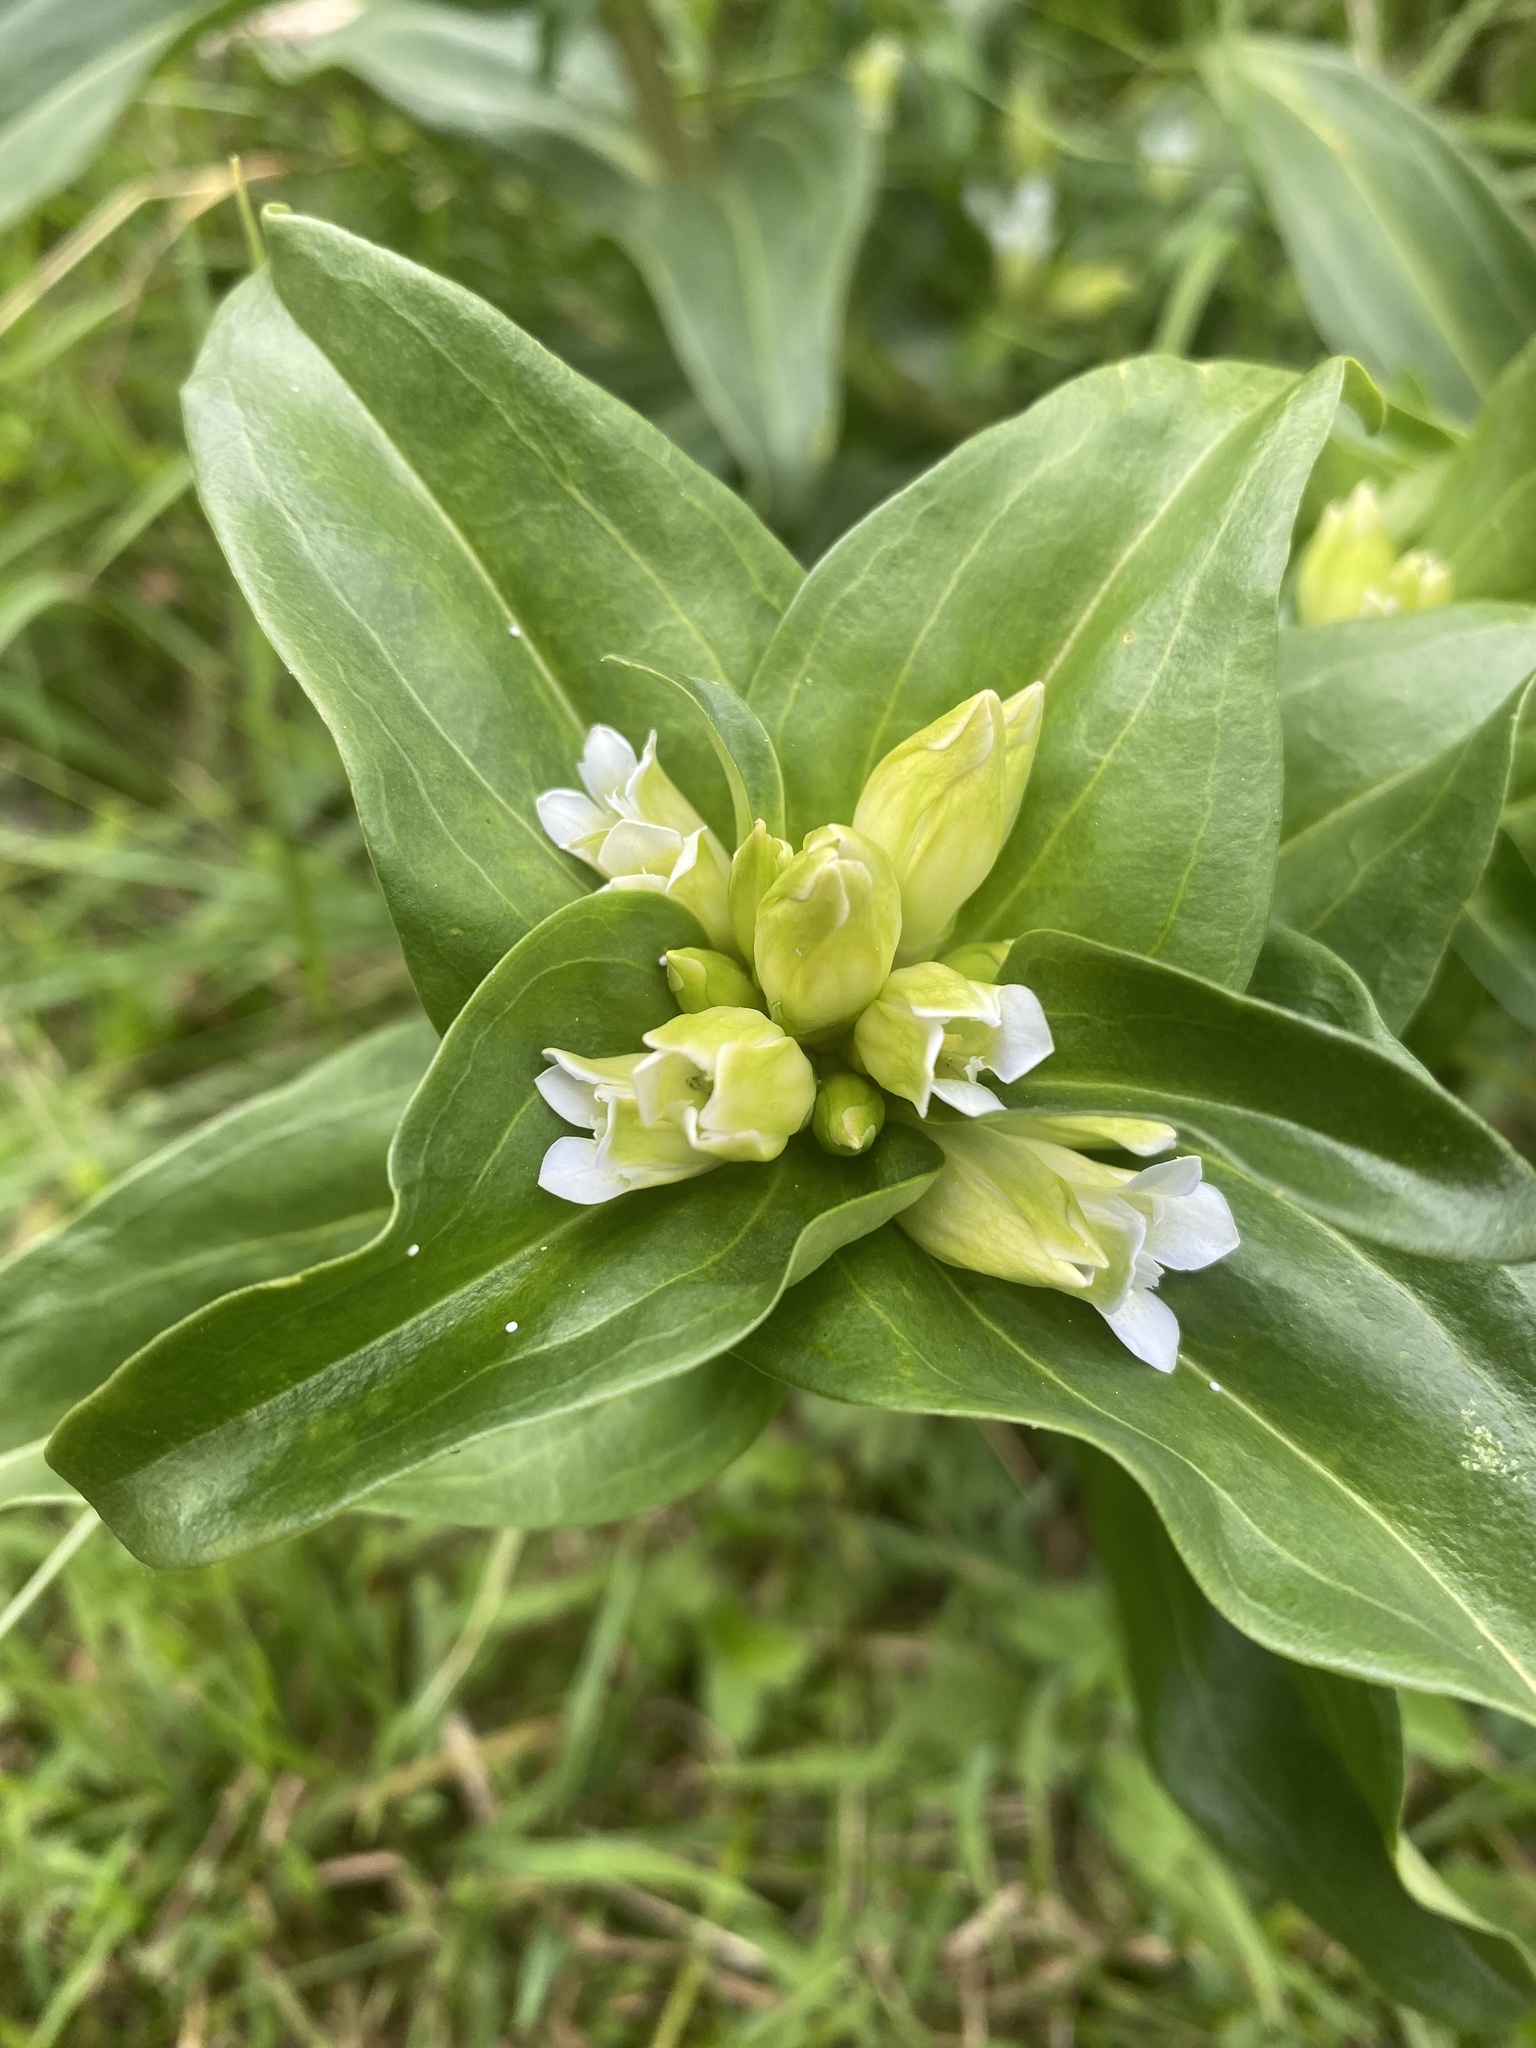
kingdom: Plantae
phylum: Tracheophyta
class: Magnoliopsida
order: Gentianales
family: Gentianaceae
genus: Gentiana
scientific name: Gentiana cruciata
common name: Cross gentian
